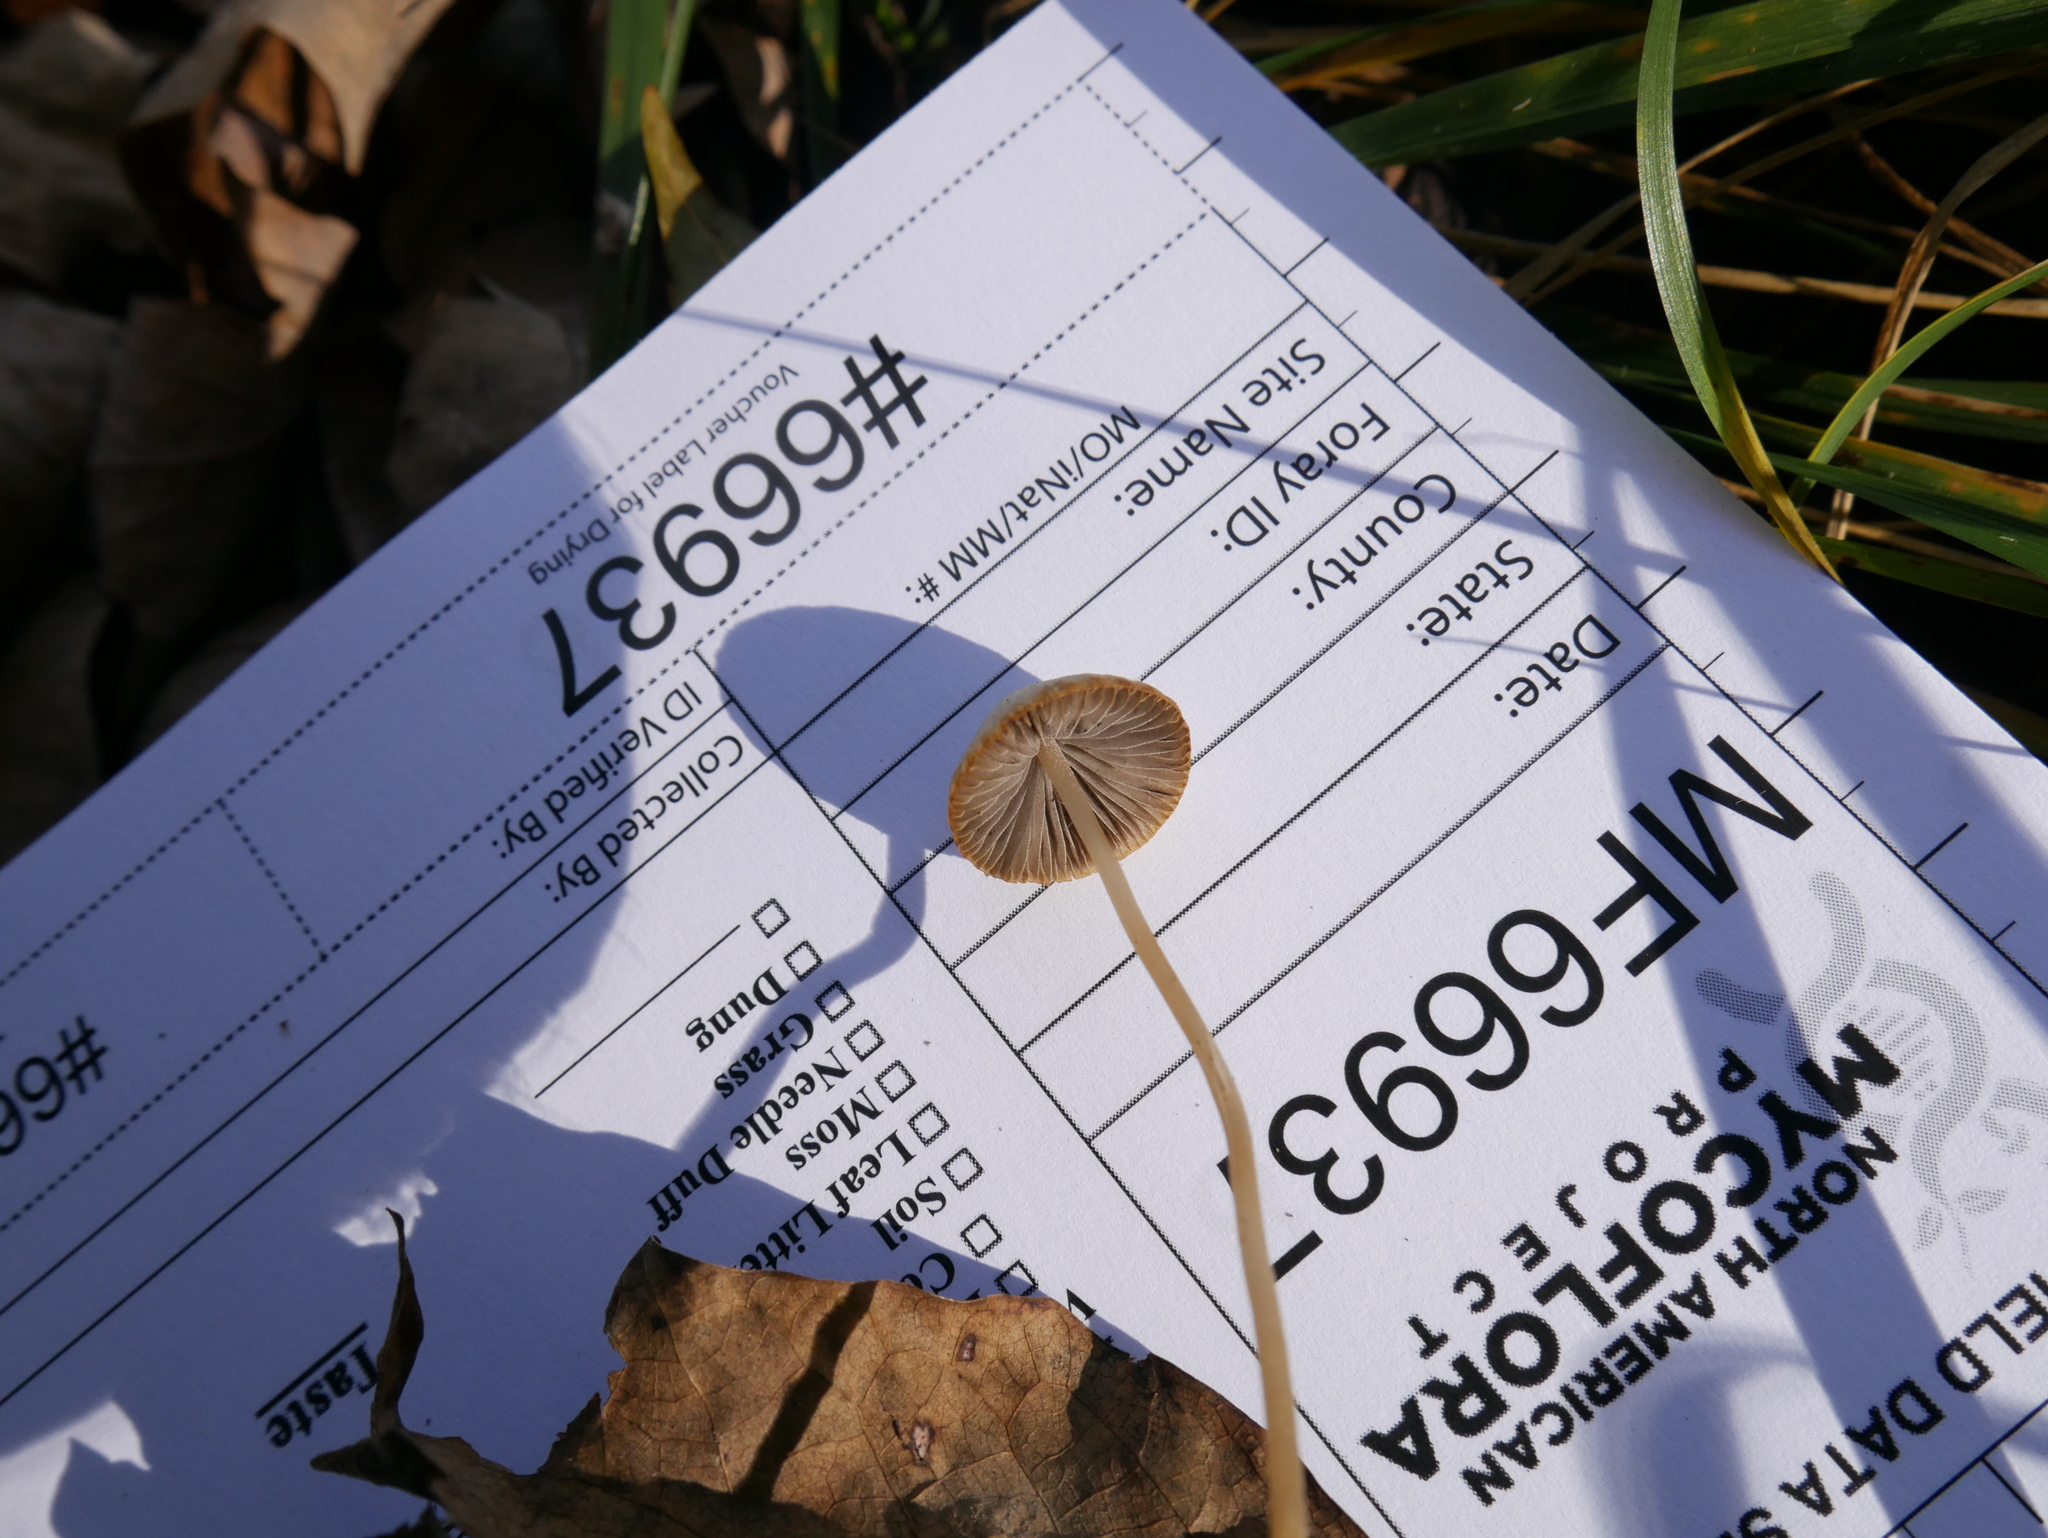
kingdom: Fungi
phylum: Basidiomycota
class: Agaricomycetes
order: Agaricales
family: Psathyrellaceae
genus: Psathyrella
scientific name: Psathyrella amarescens
